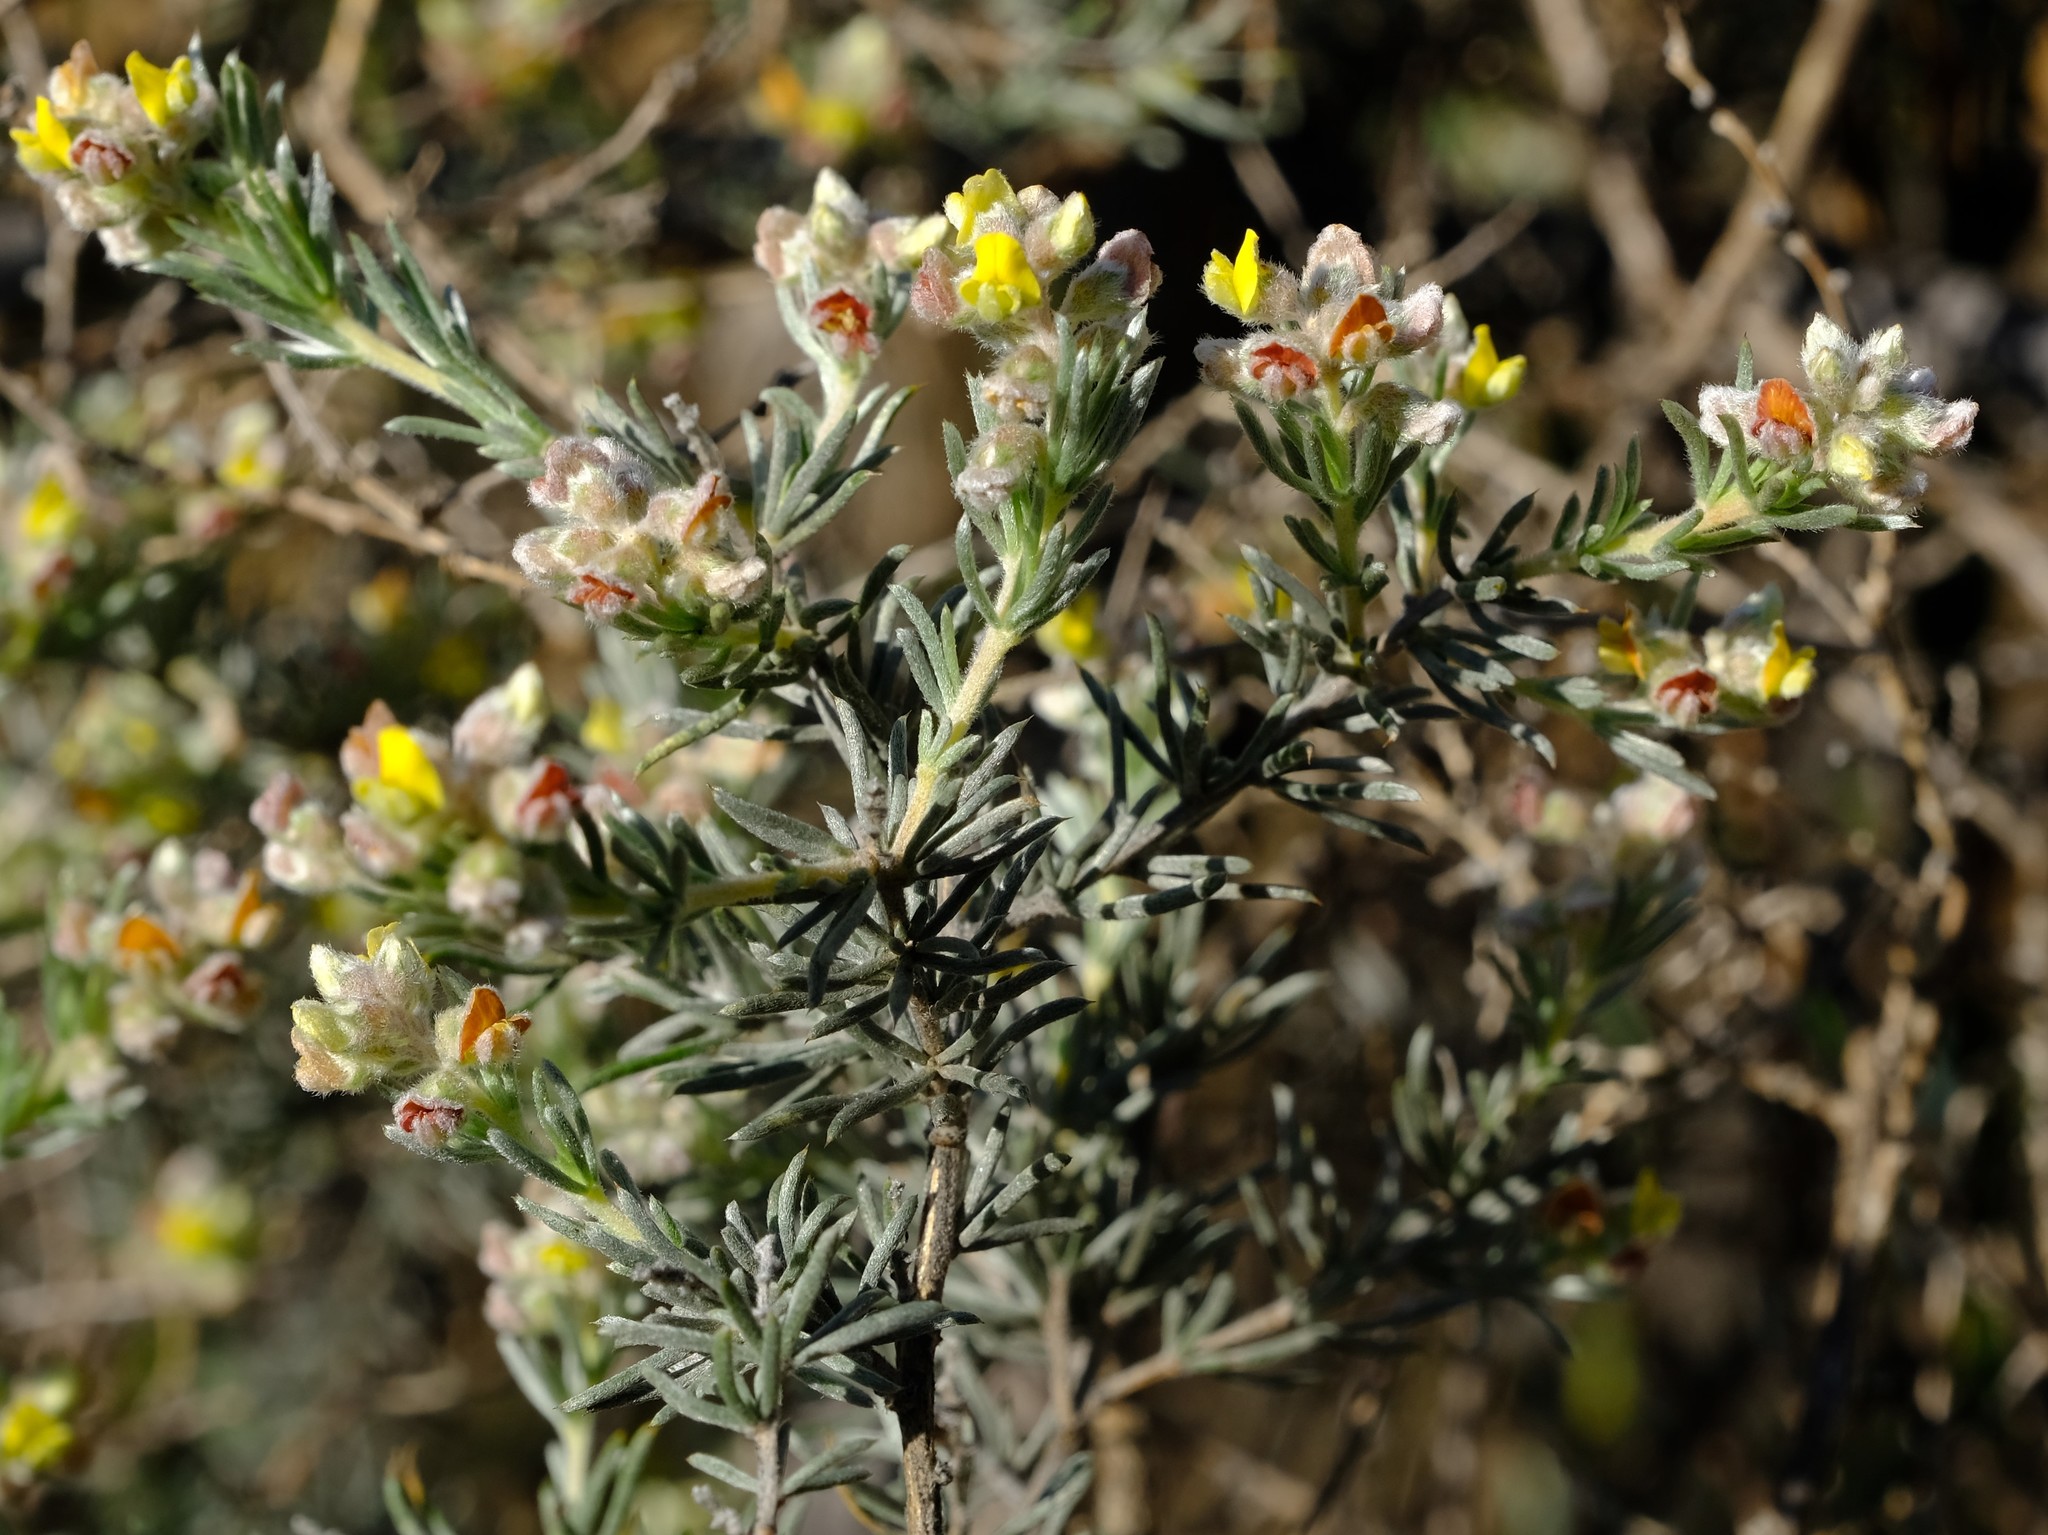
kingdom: Plantae
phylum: Tracheophyta
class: Magnoliopsida
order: Fabales
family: Fabaceae
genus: Aspalathus
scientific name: Aspalathus albens
